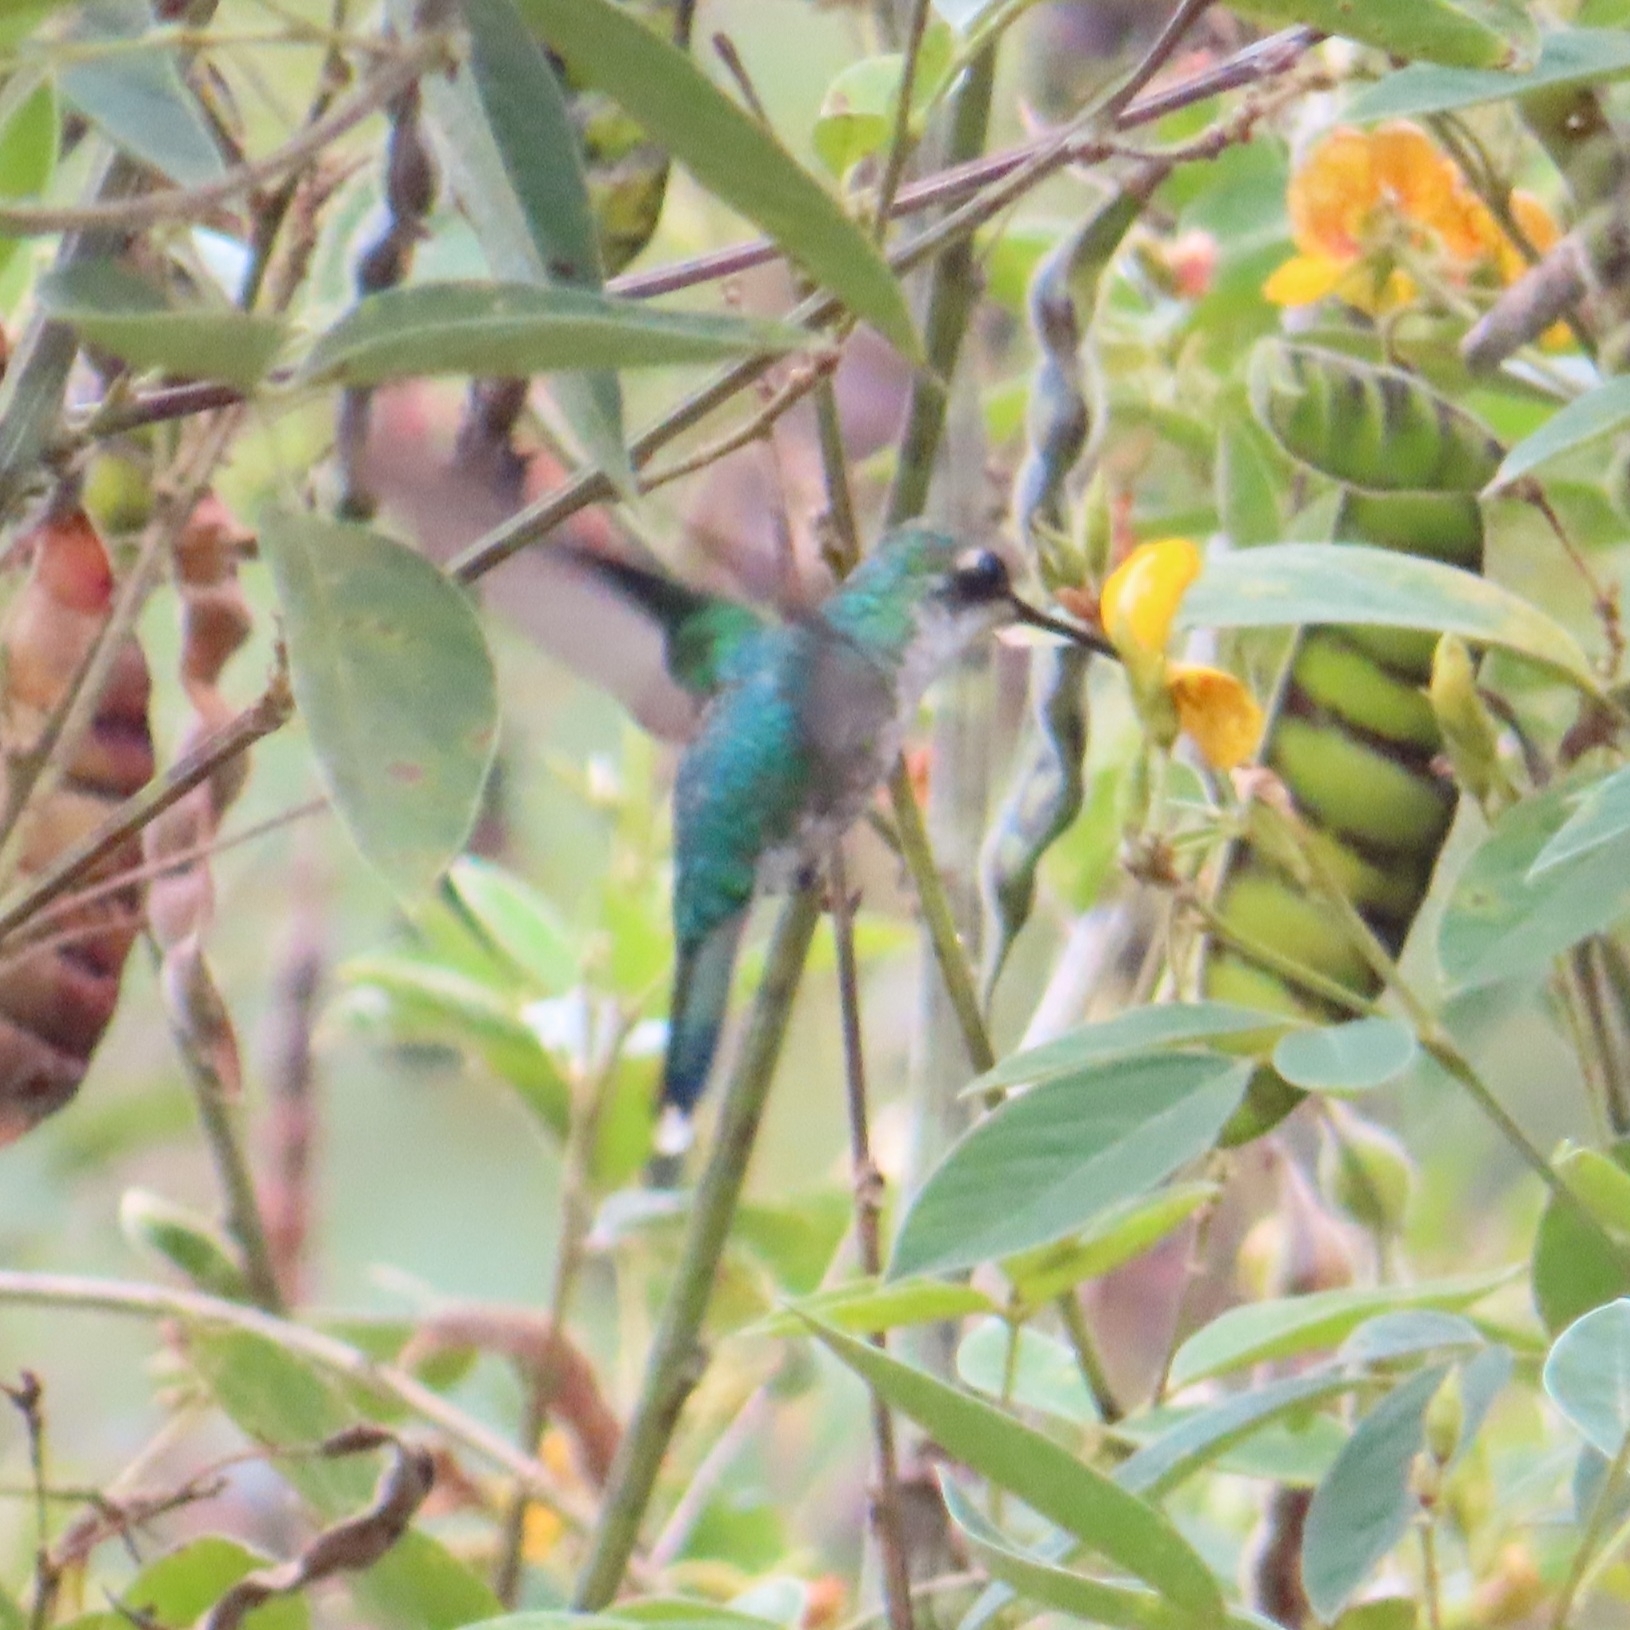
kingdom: Animalia
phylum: Chordata
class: Aves
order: Apodiformes
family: Trochilidae
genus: Riccordia
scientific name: Riccordia maugaeus
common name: Puerto rican emerald
